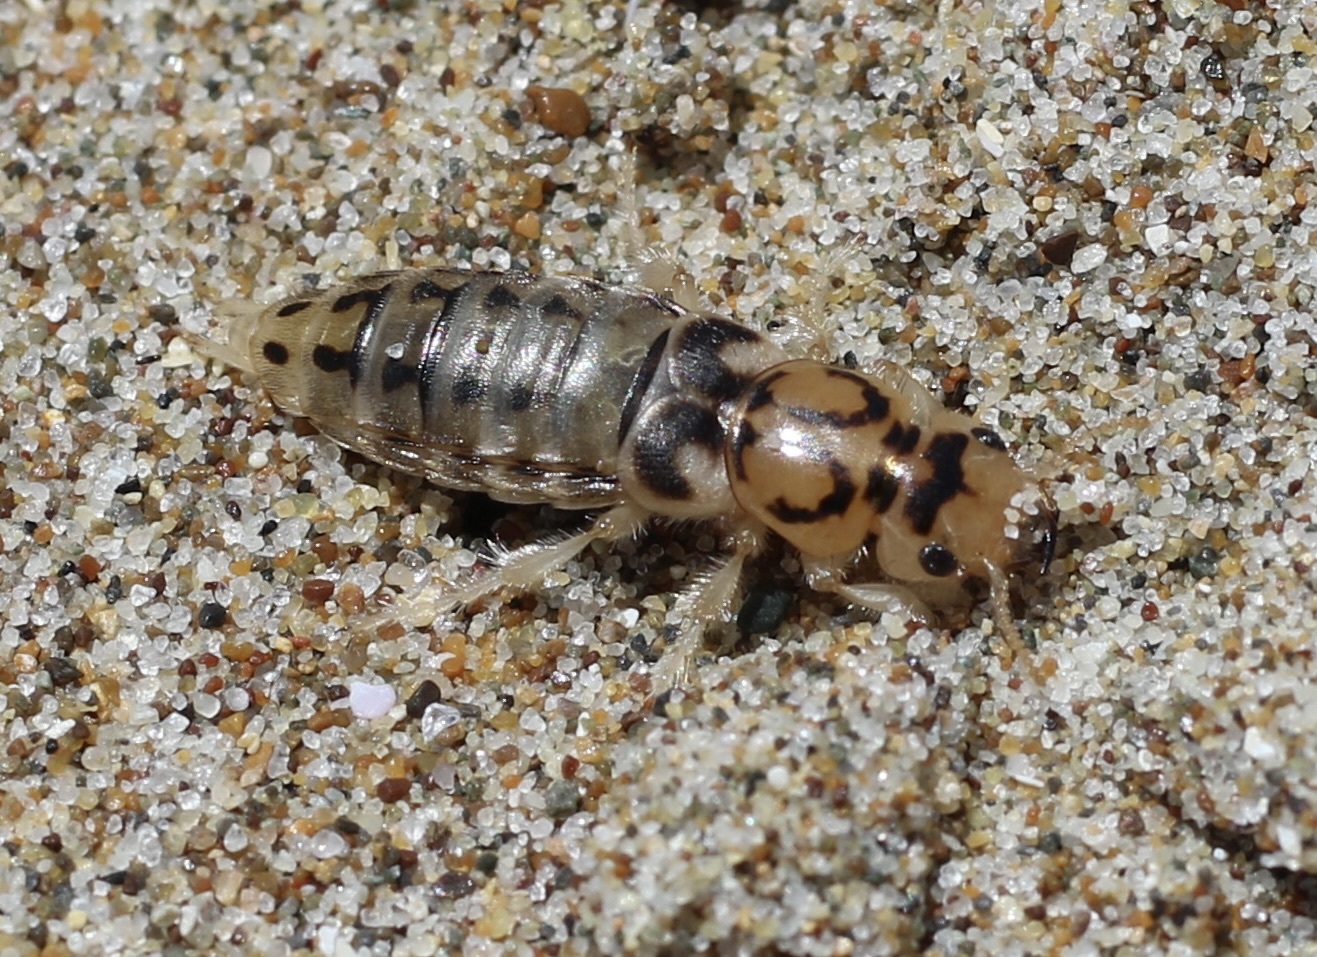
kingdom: Animalia
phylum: Arthropoda
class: Insecta
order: Coleoptera
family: Staphylinidae
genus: Thinopinus
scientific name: Thinopinus pictus
